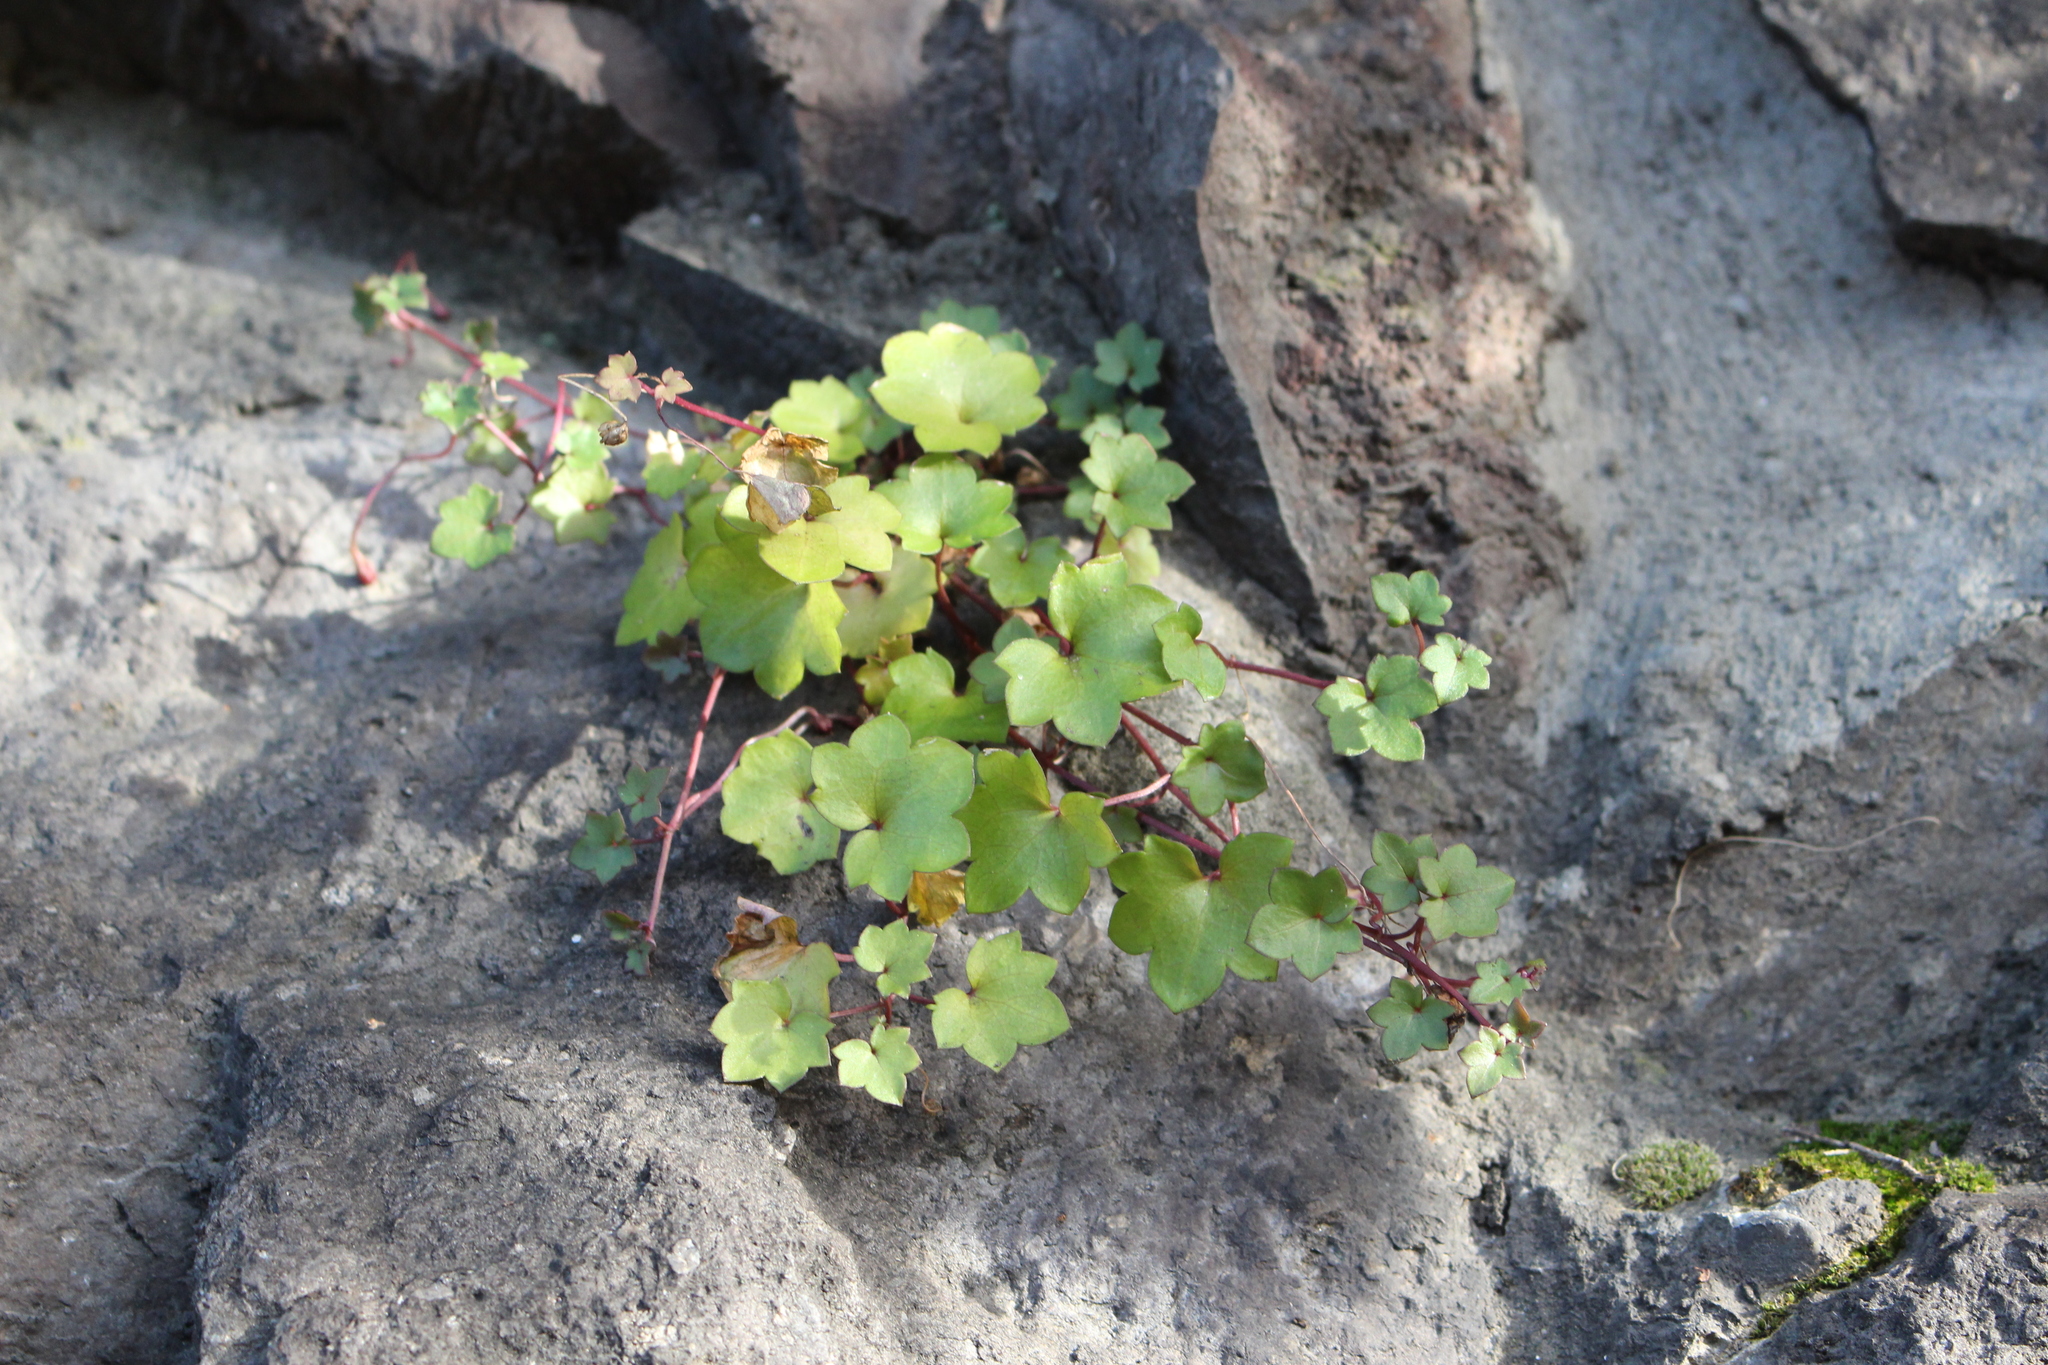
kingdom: Plantae
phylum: Tracheophyta
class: Magnoliopsida
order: Lamiales
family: Plantaginaceae
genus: Cymbalaria
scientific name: Cymbalaria muralis
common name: Ivy-leaved toadflax
